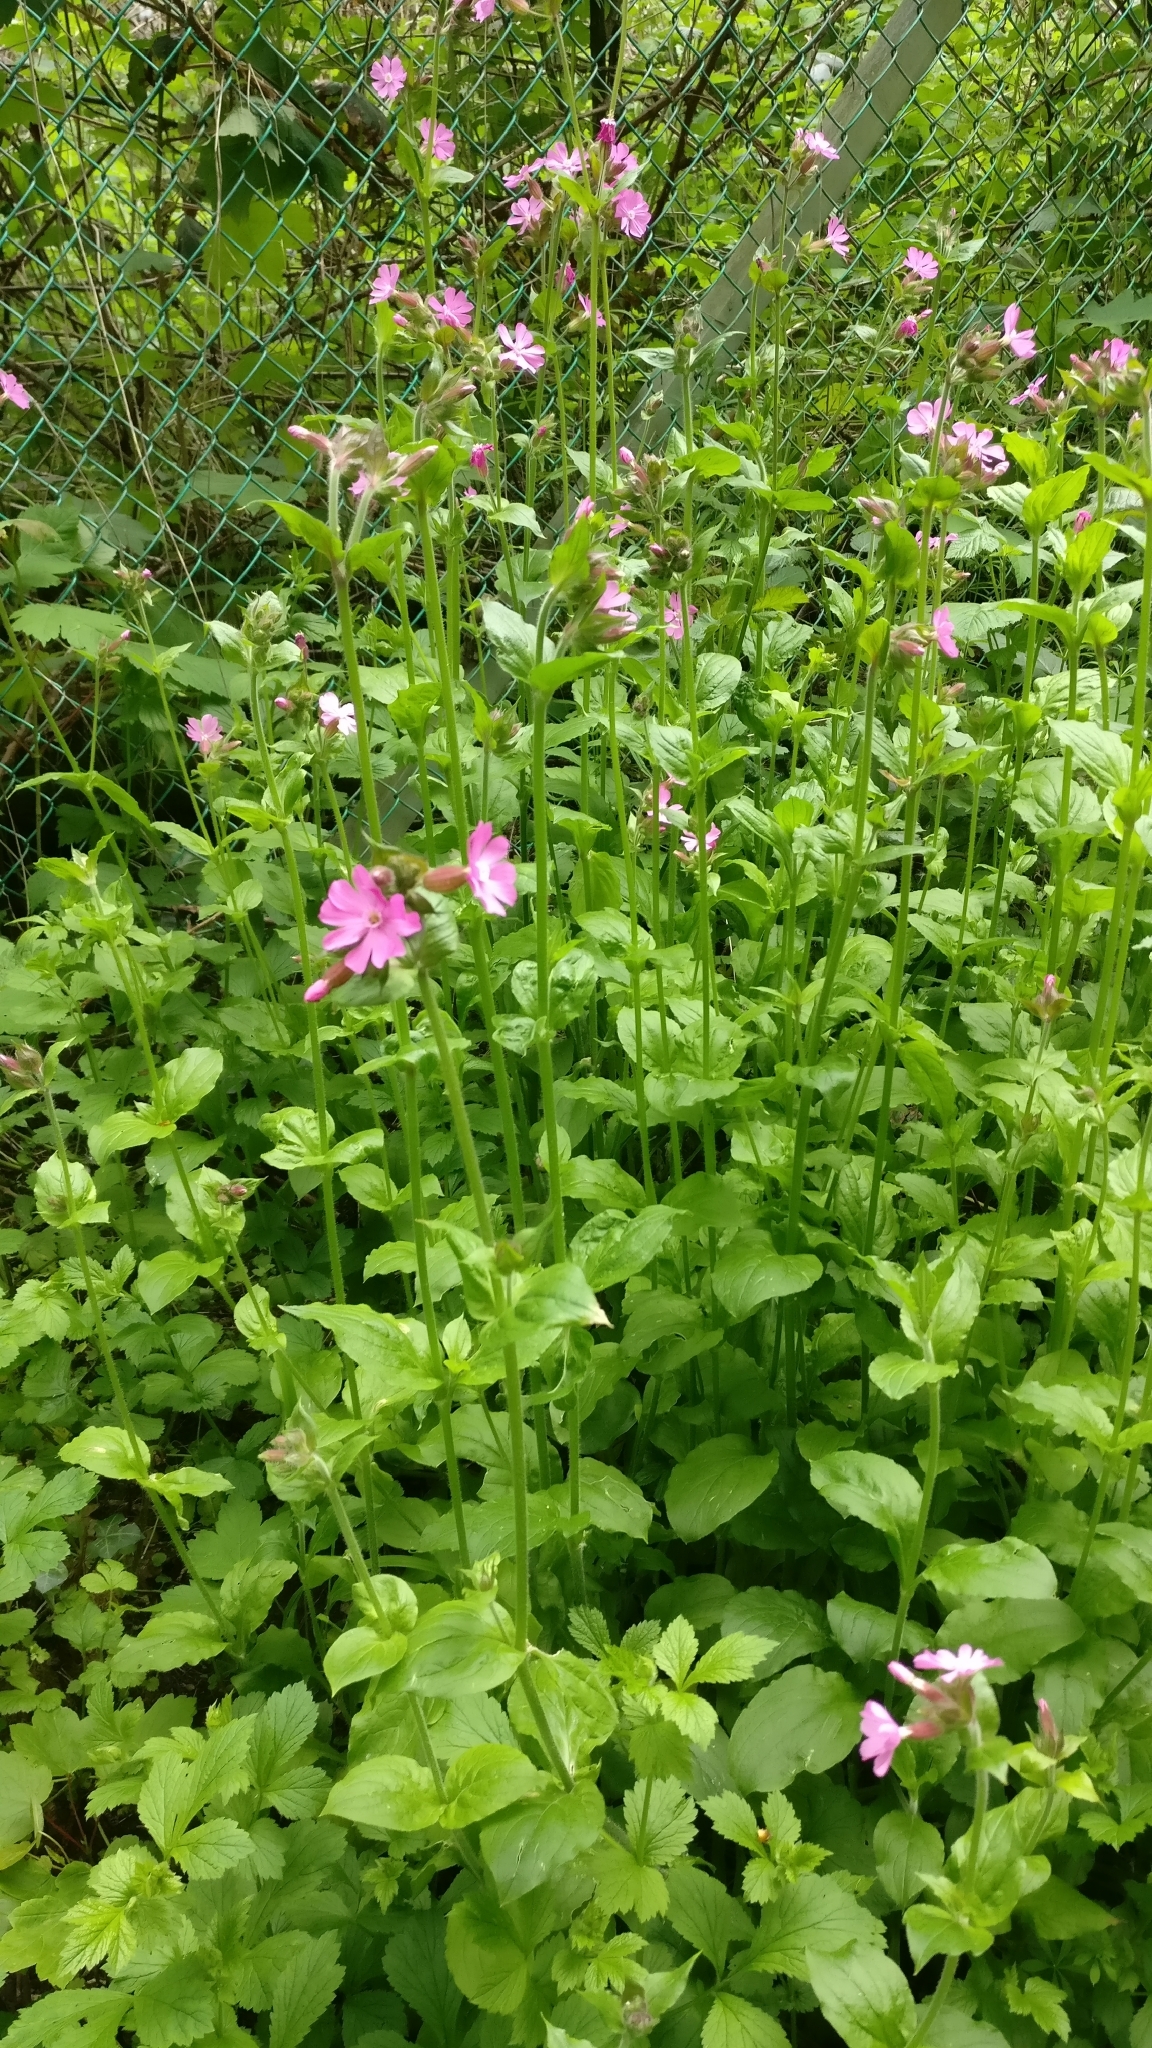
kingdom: Plantae
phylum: Tracheophyta
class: Magnoliopsida
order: Caryophyllales
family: Caryophyllaceae
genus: Silene
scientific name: Silene dioica
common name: Red campion
